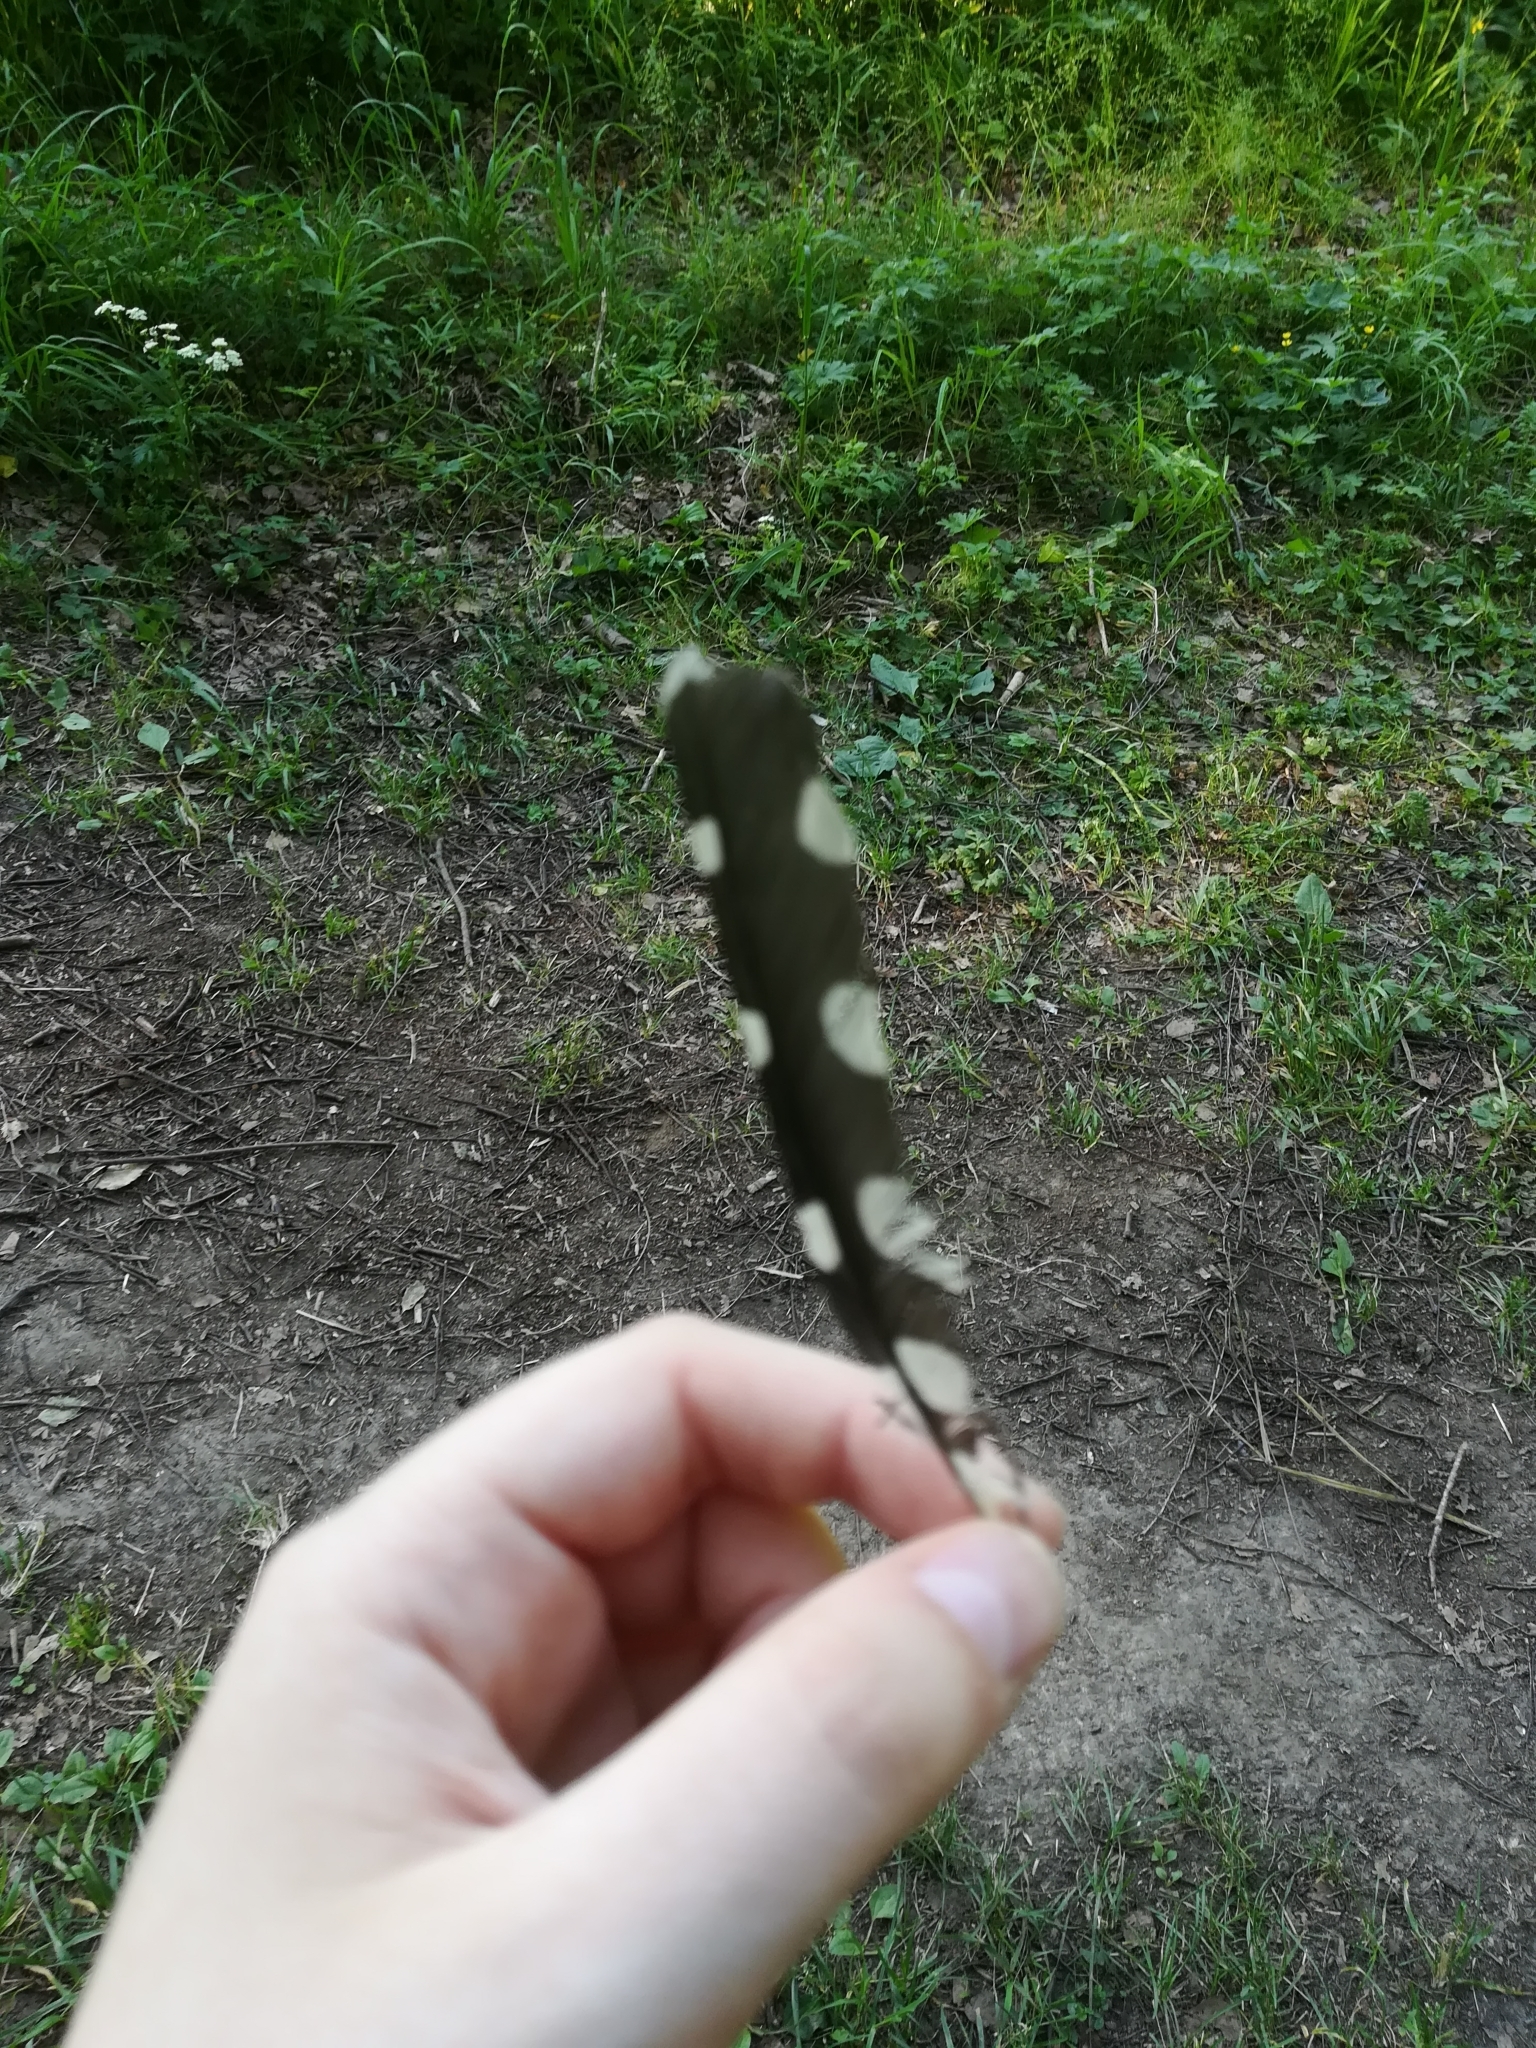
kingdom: Animalia
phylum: Chordata
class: Aves
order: Piciformes
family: Picidae
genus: Dendrocopos
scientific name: Dendrocopos major
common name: Great spotted woodpecker
